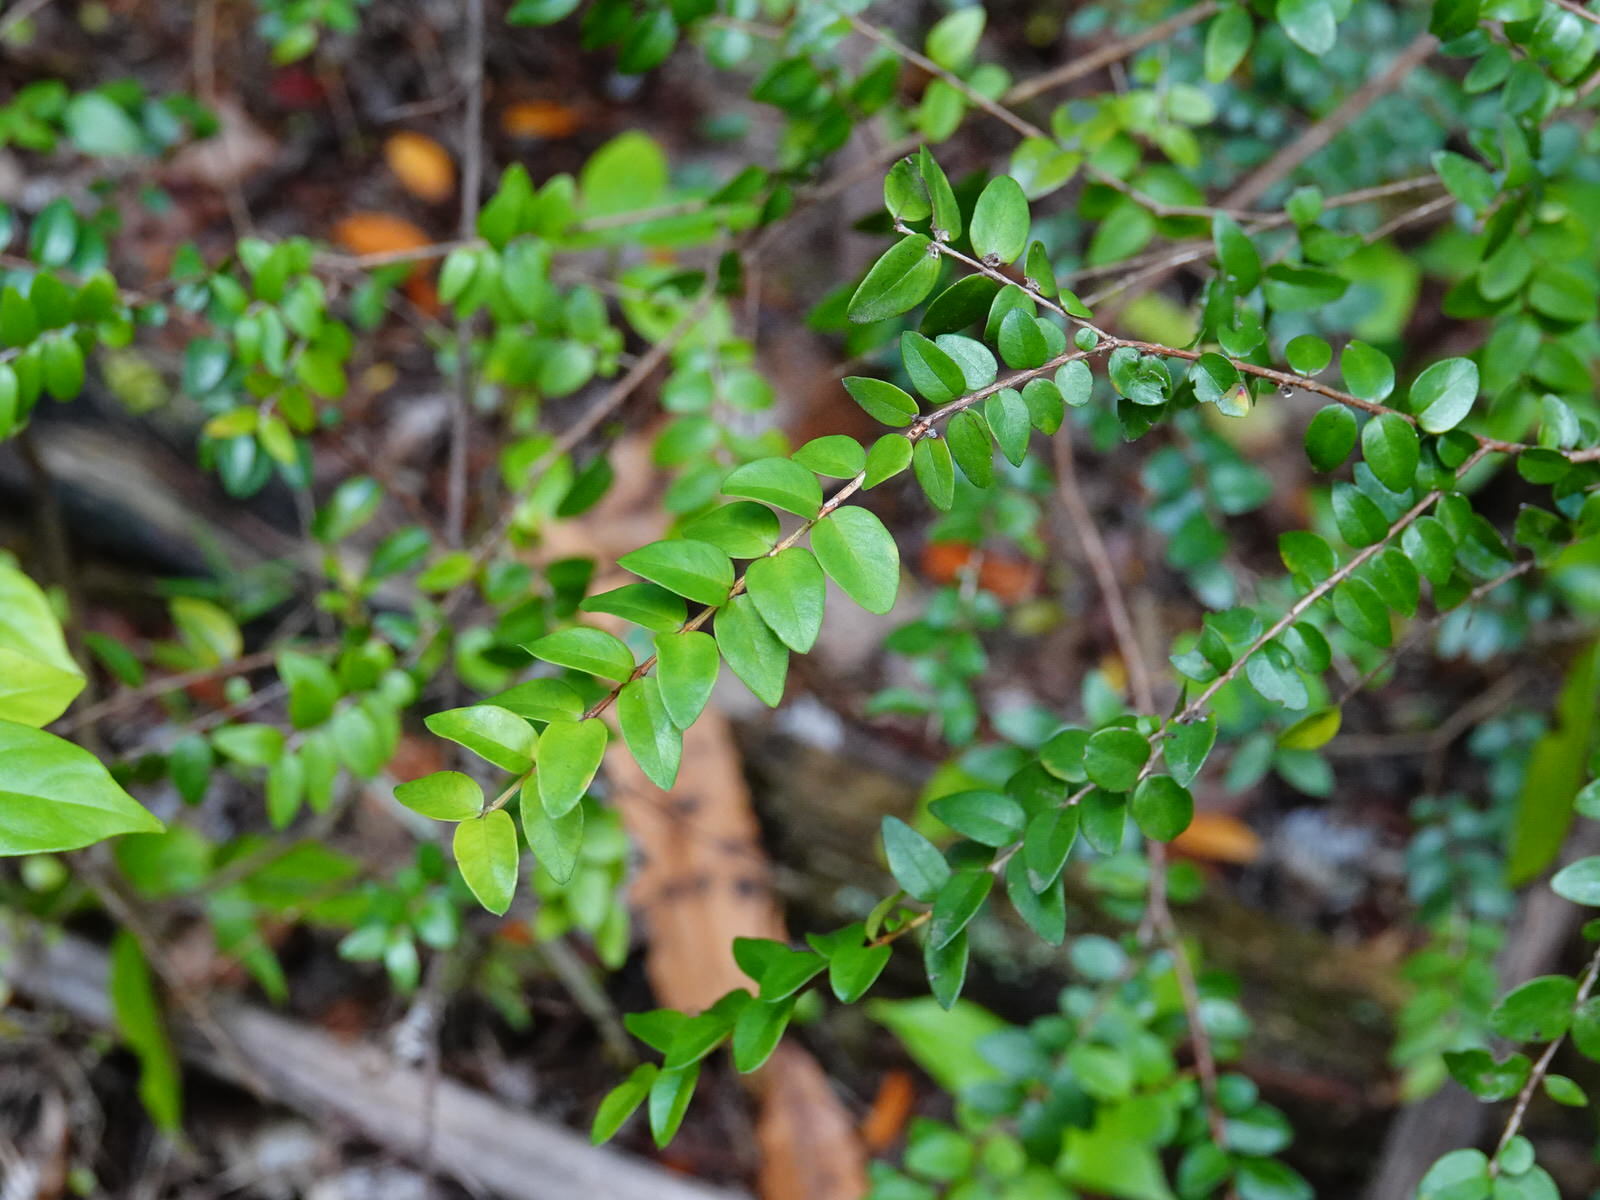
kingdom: Plantae
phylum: Tracheophyta
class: Magnoliopsida
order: Myrtales
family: Myrtaceae
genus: Metrosideros
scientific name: Metrosideros diffusa
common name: Small ratavine
